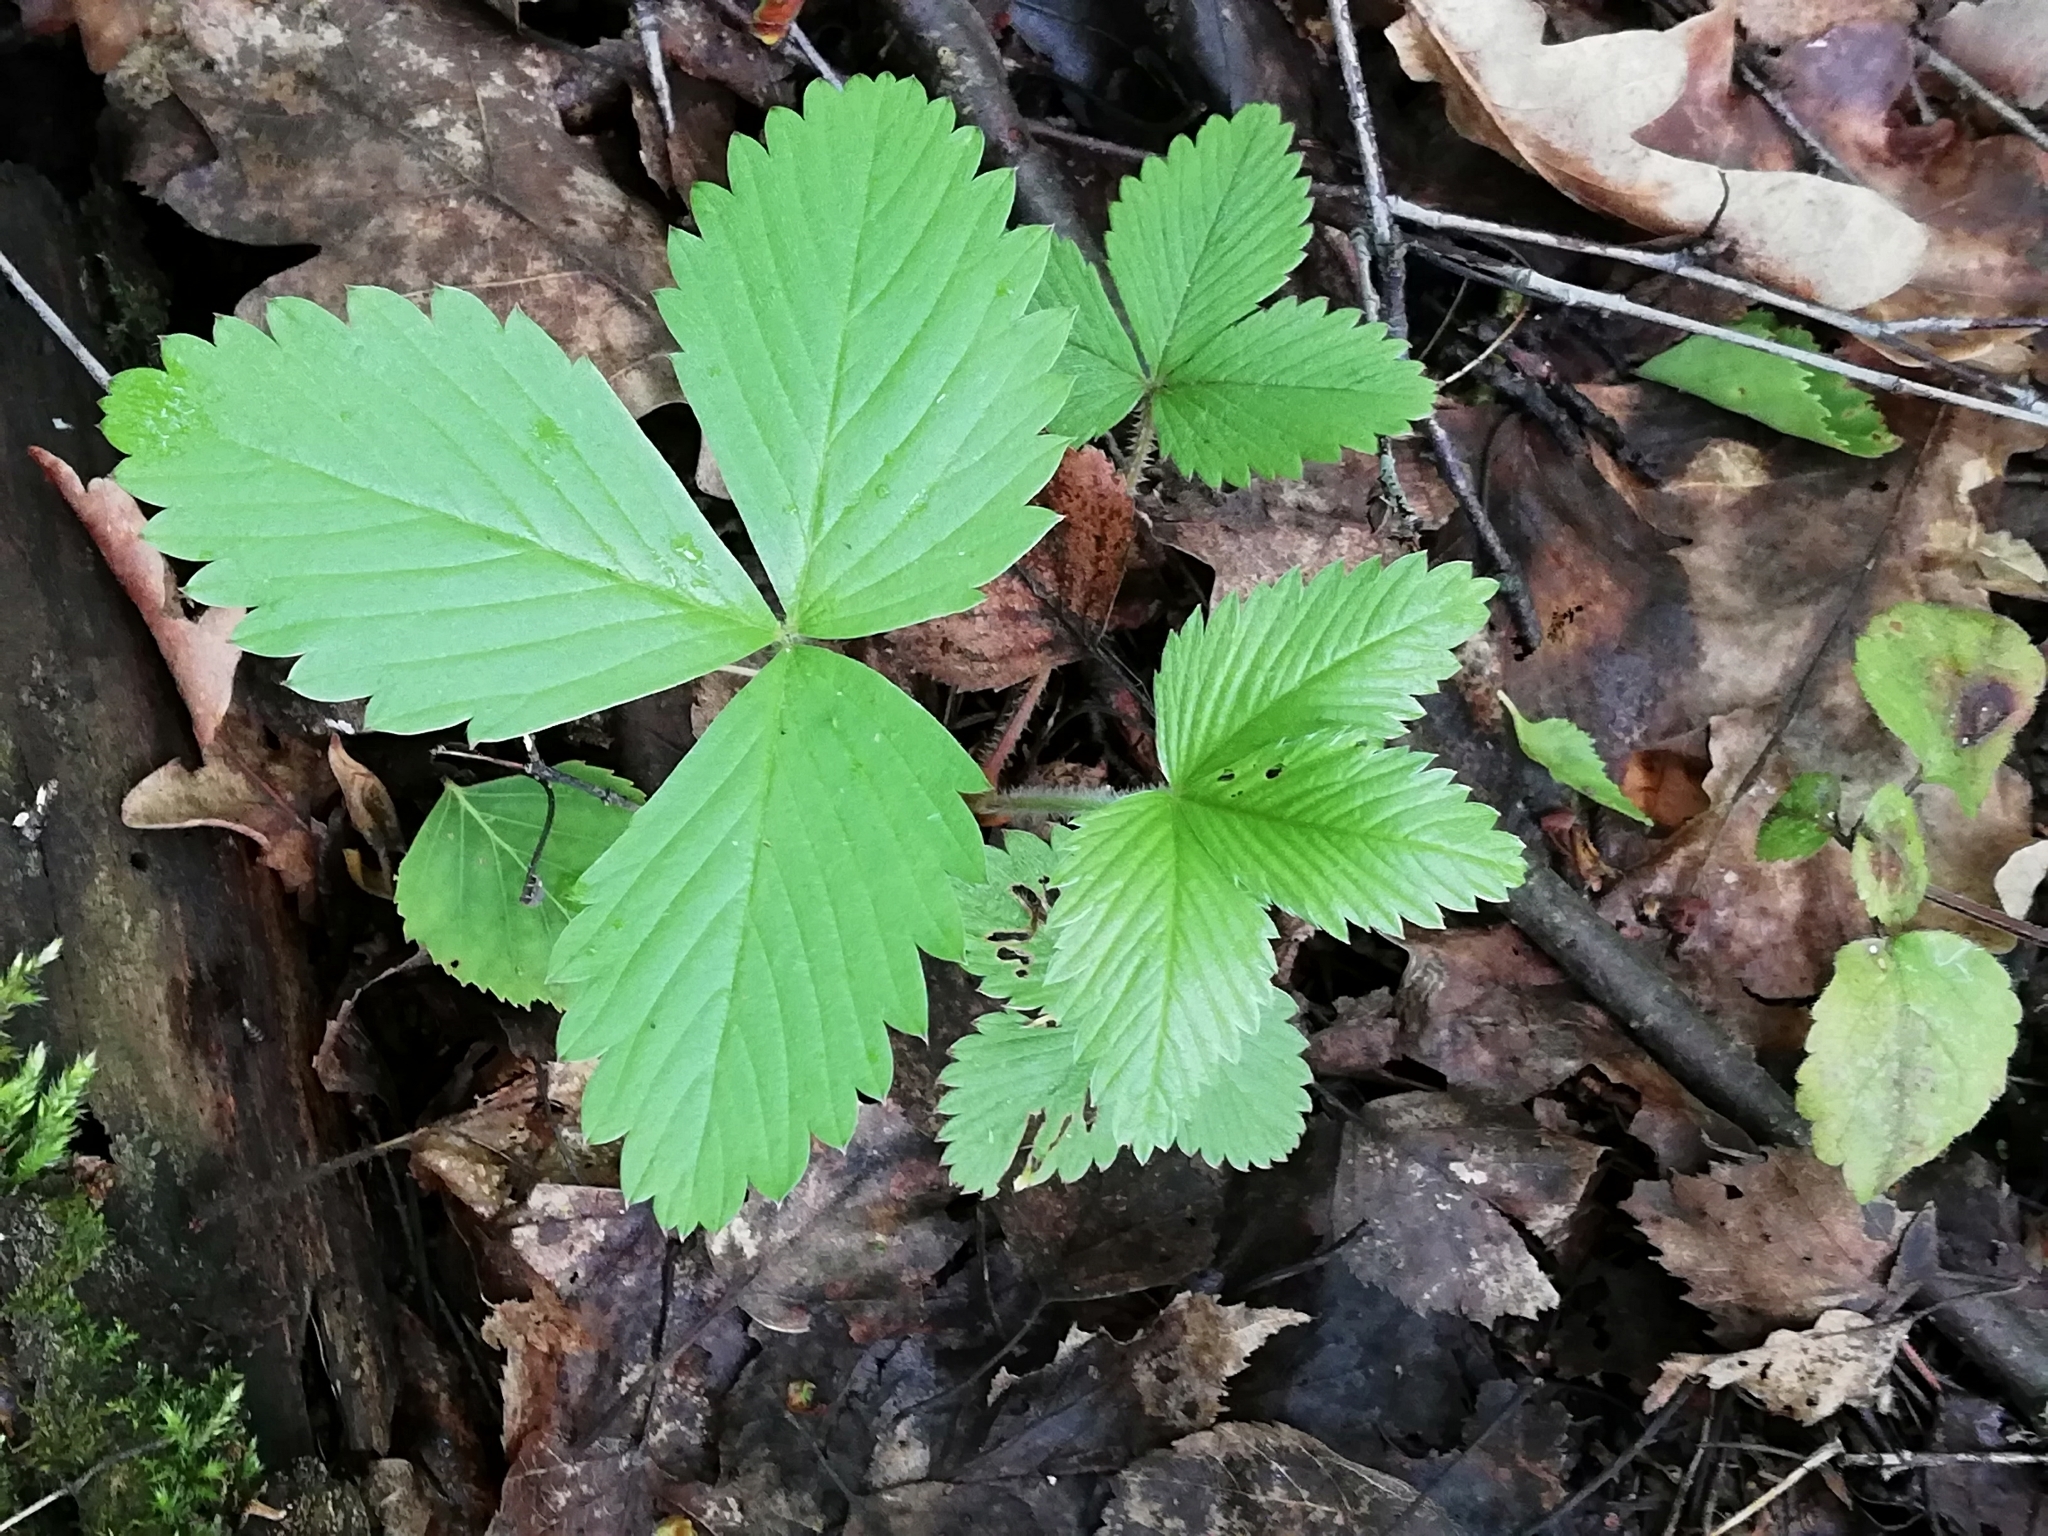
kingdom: Plantae
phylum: Tracheophyta
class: Magnoliopsida
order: Rosales
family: Rosaceae
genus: Fragaria
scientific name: Fragaria moschata
